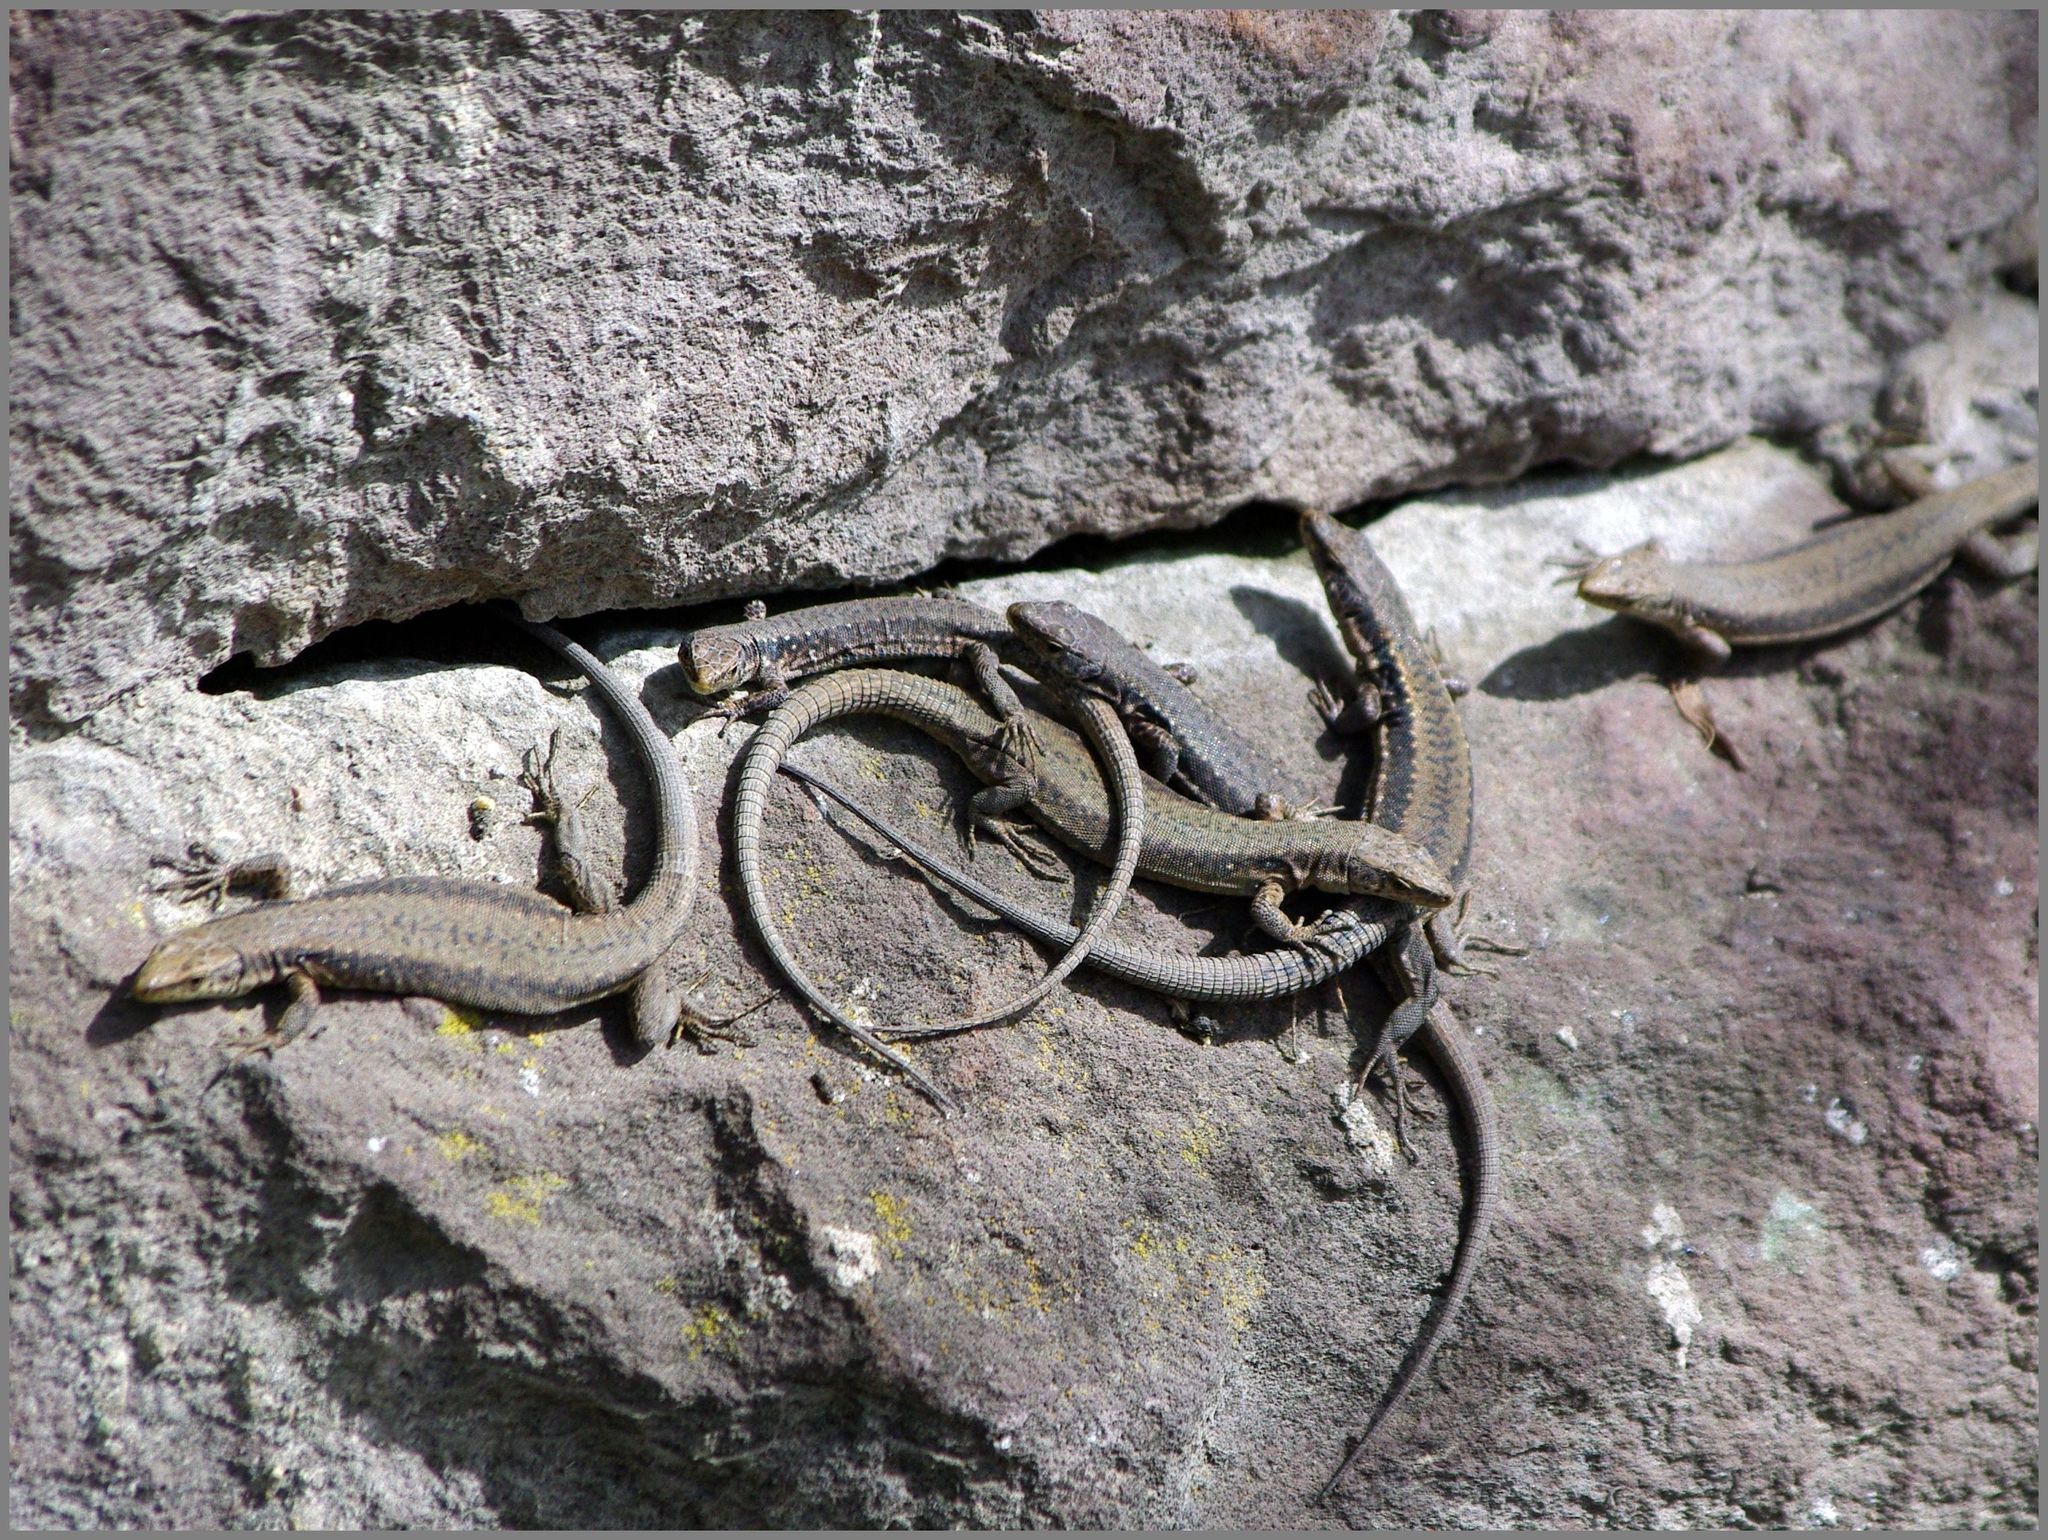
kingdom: Animalia
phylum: Chordata
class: Squamata
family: Lacertidae
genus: Darevskia
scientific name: Darevskia armeniaca
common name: Armenian lizard
